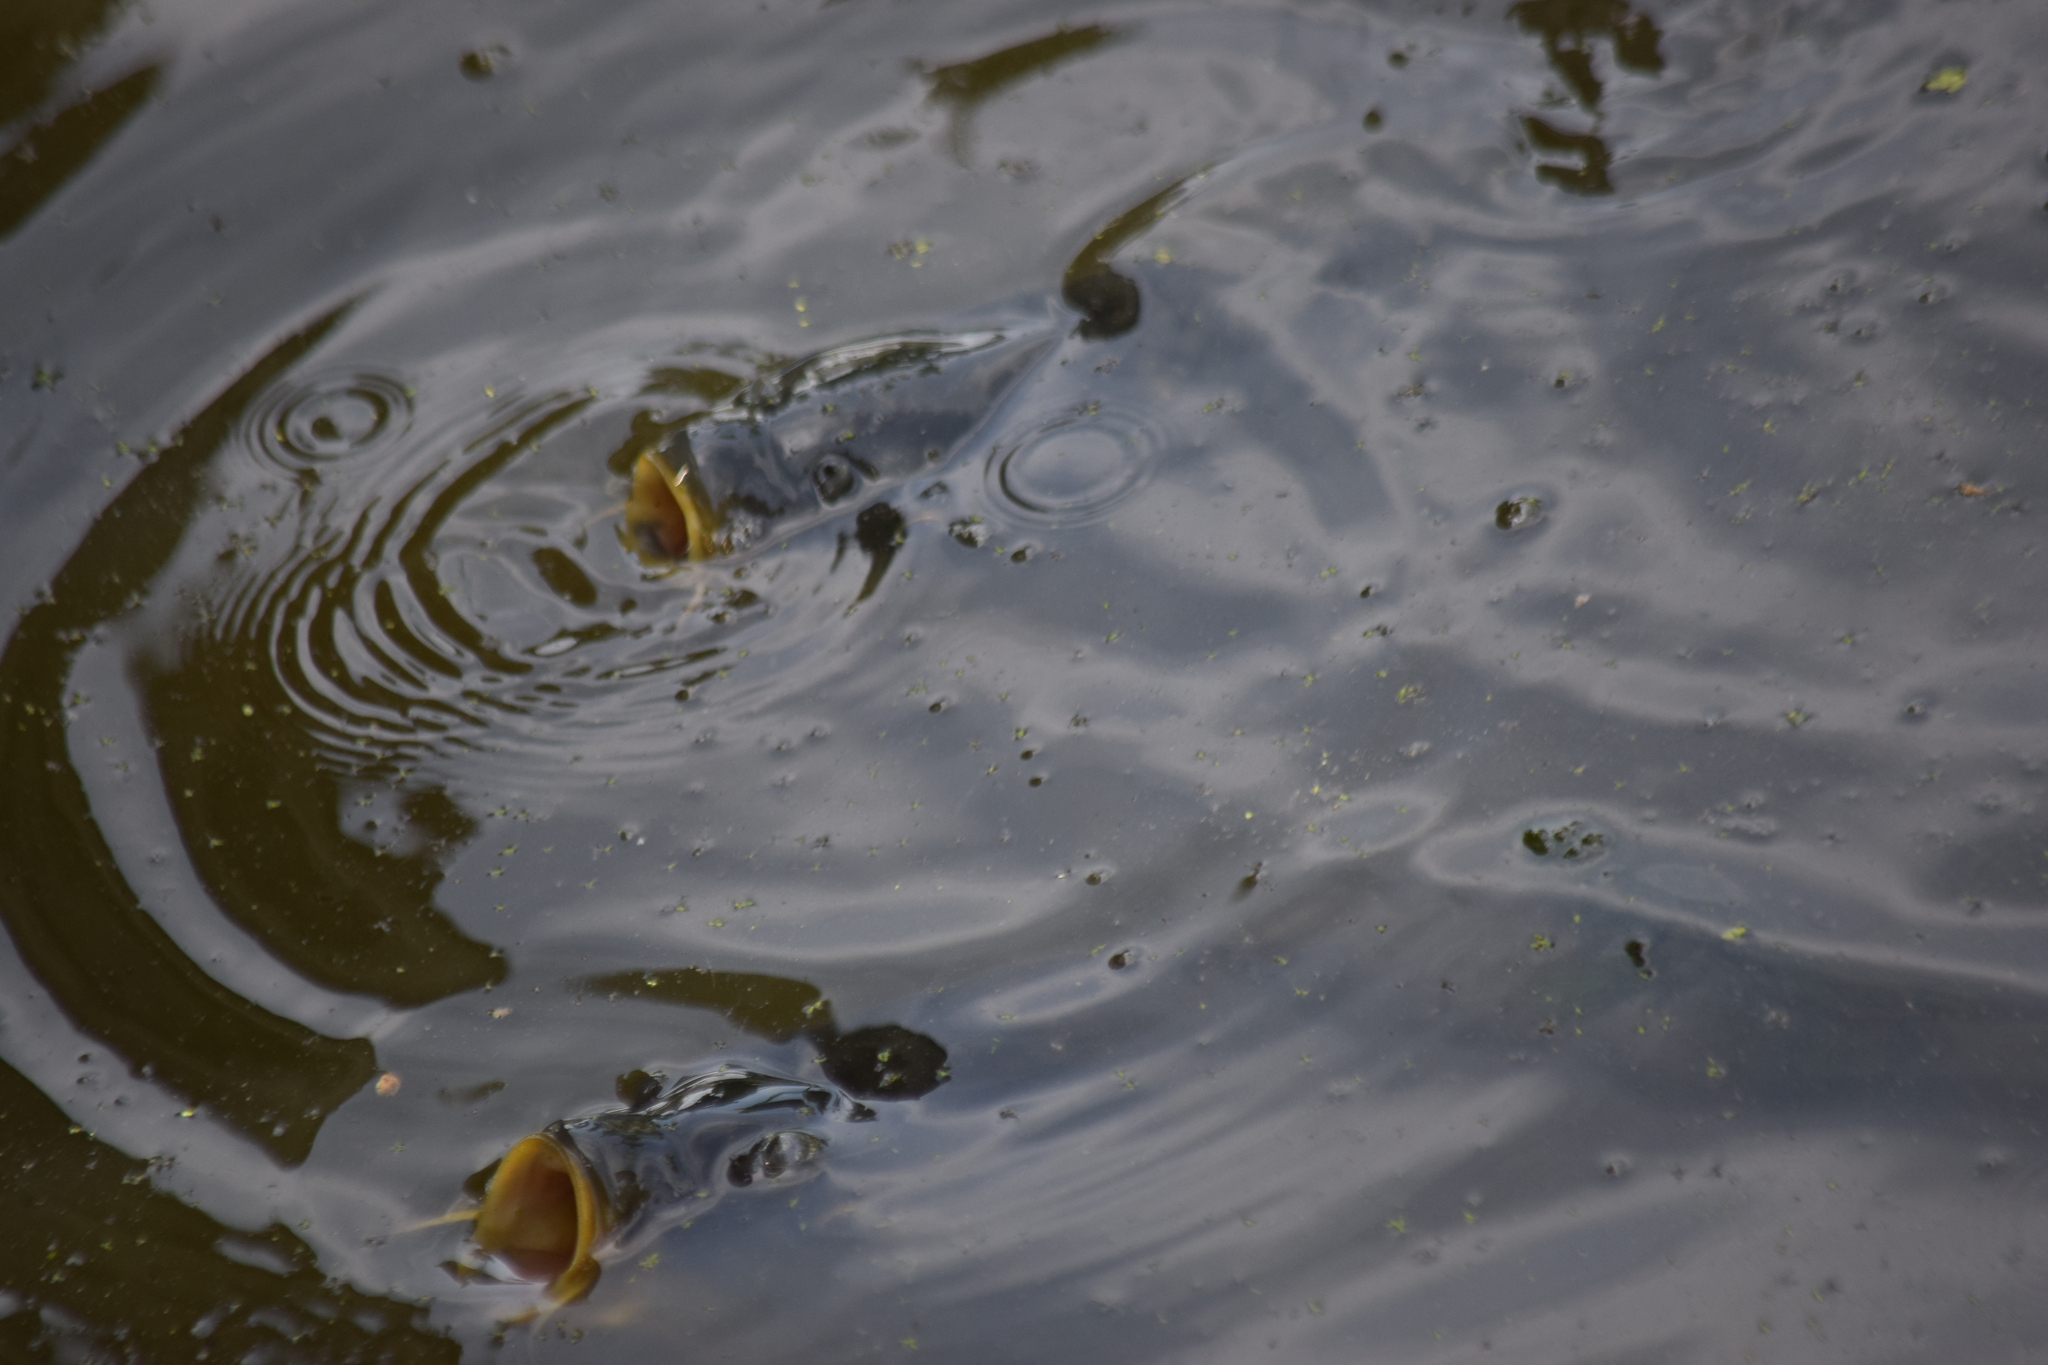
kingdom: Animalia
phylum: Chordata
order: Cypriniformes
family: Cyprinidae
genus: Cyprinus
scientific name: Cyprinus carpio
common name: Common carp
